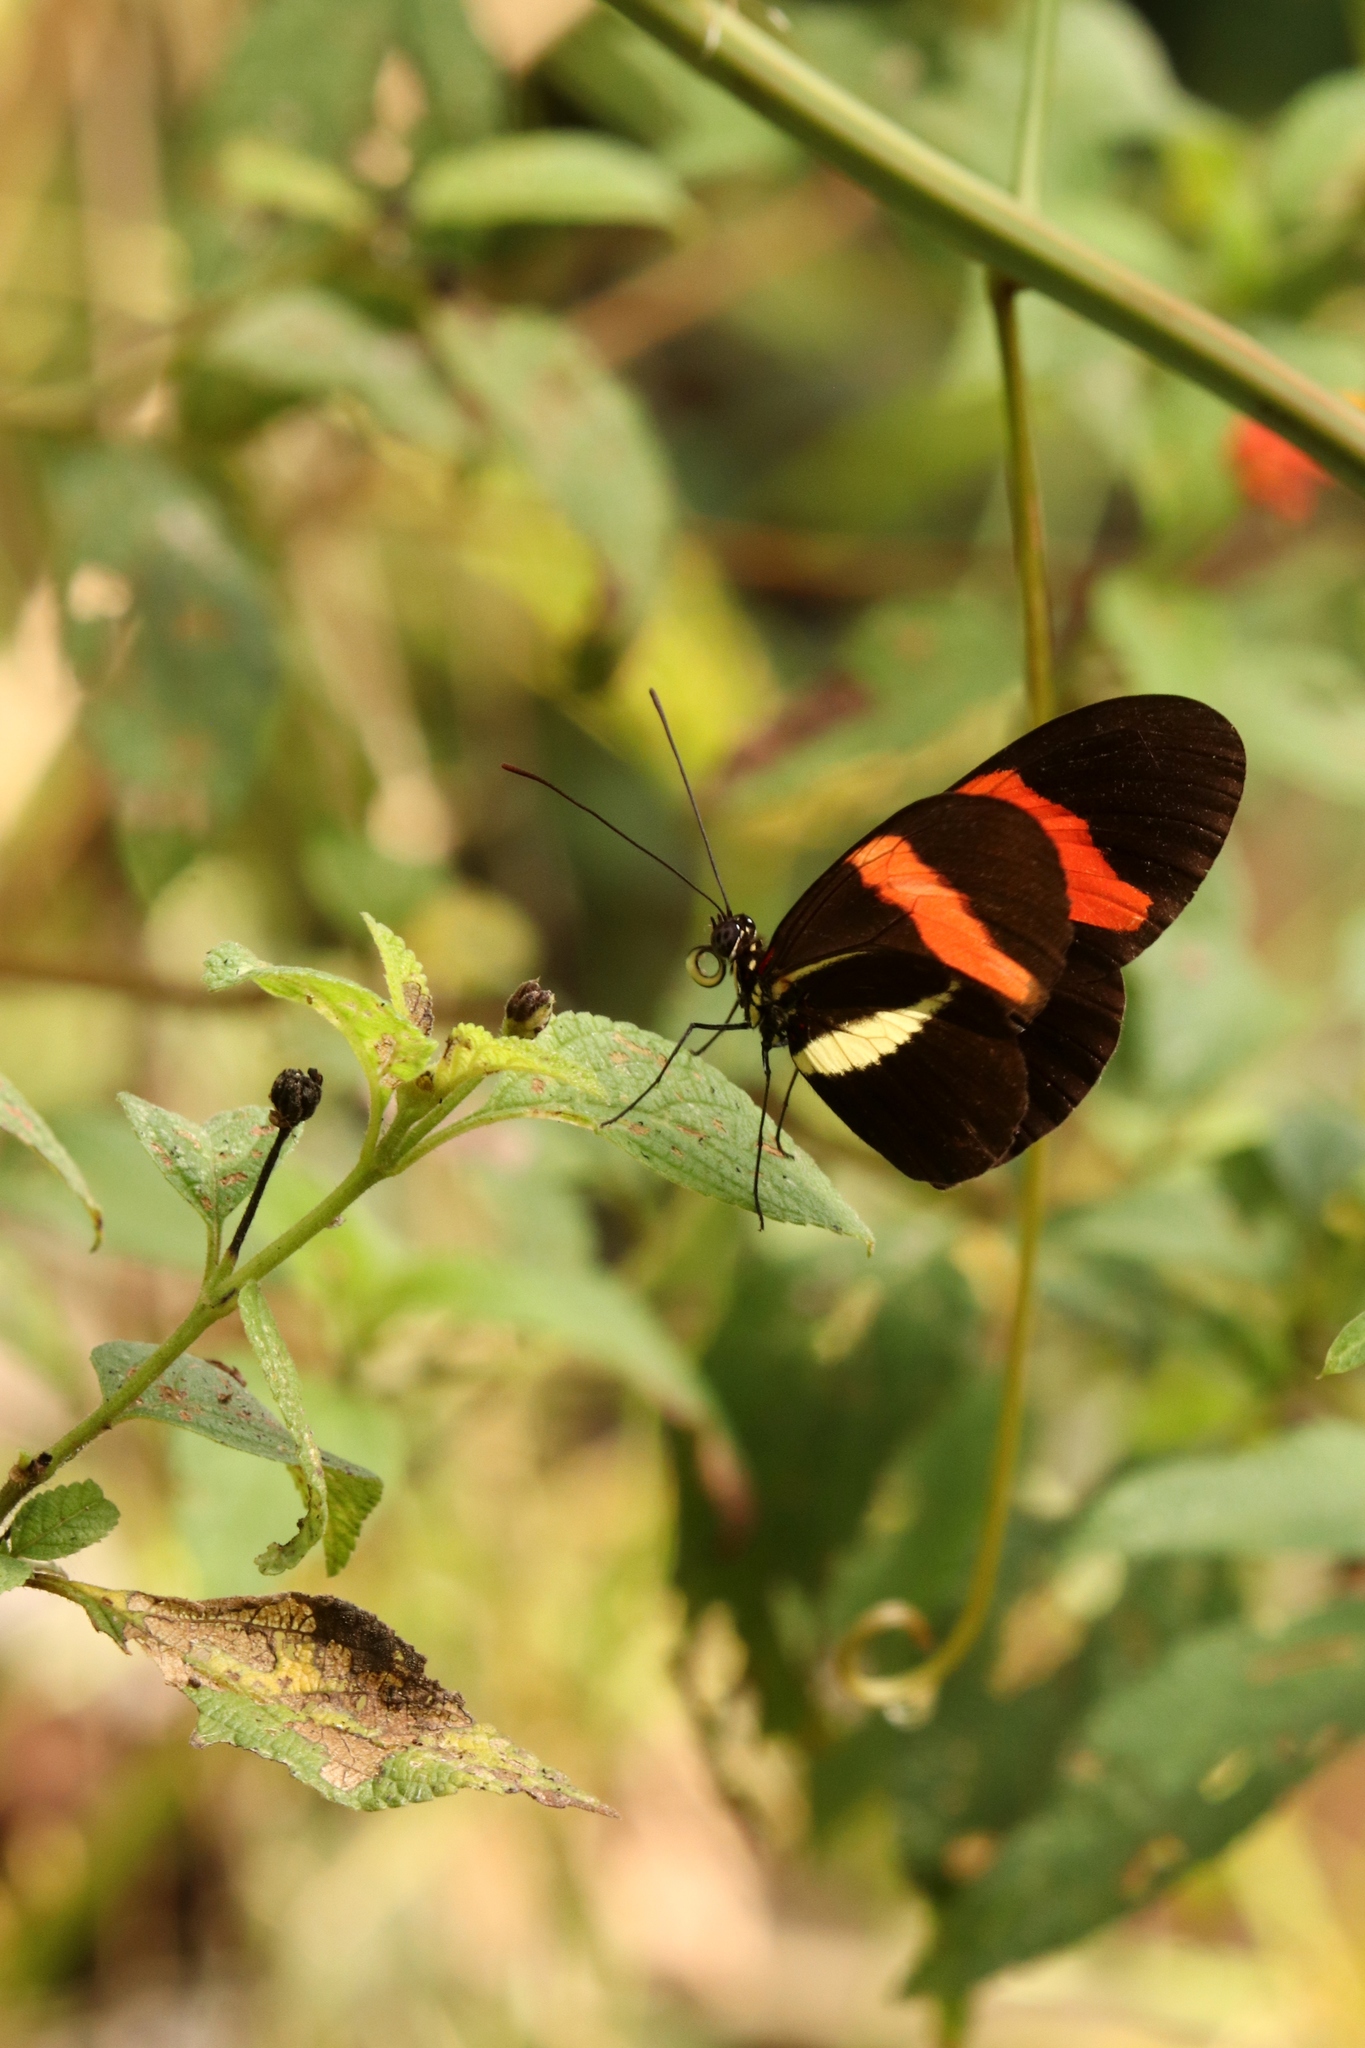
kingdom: Animalia
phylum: Arthropoda
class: Insecta
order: Lepidoptera
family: Nymphalidae
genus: Tirumala
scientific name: Tirumala petiverana
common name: Blue monarch
